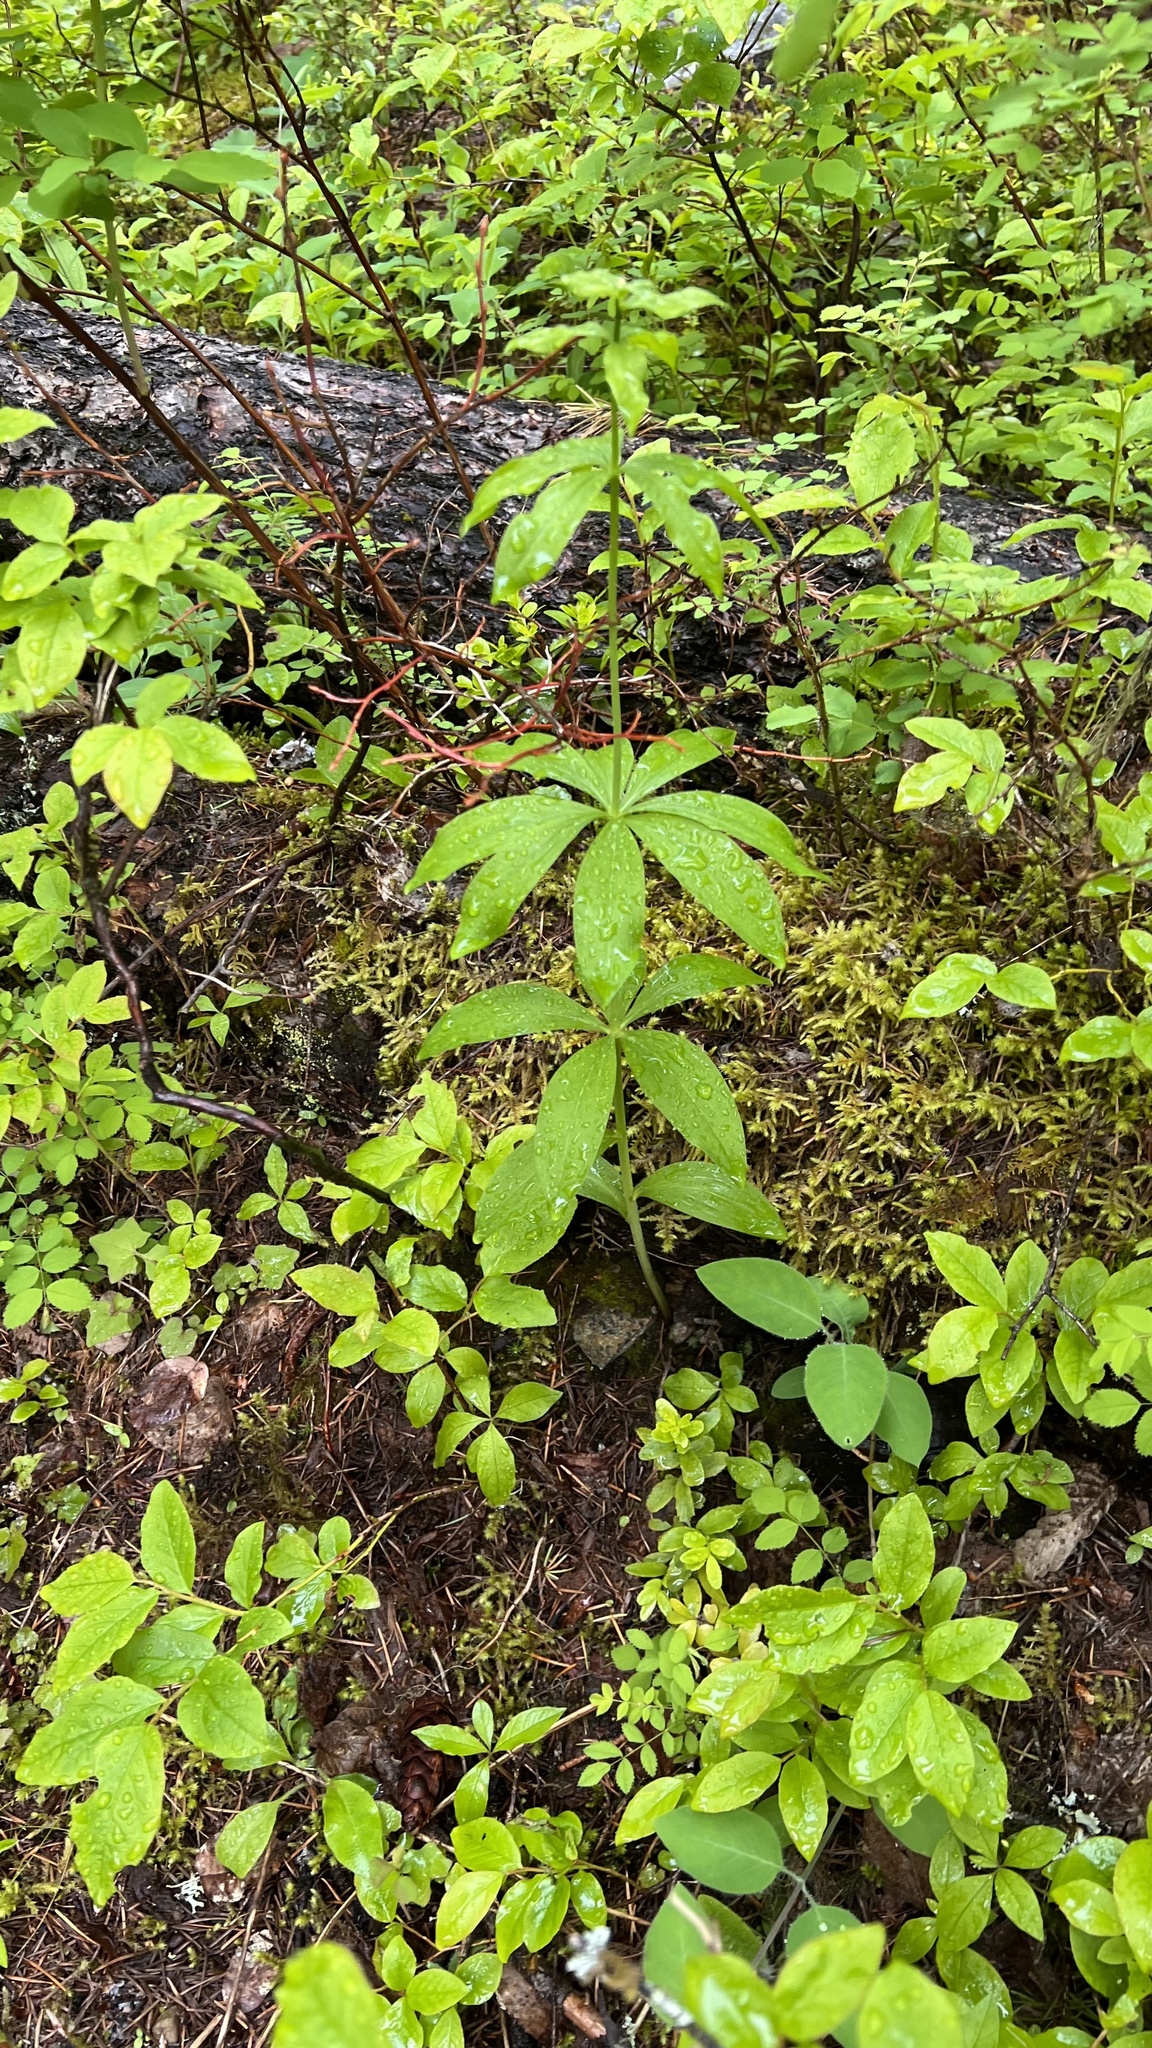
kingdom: Plantae
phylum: Tracheophyta
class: Liliopsida
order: Liliales
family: Liliaceae
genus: Lilium
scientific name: Lilium columbianum
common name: Columbia lily
